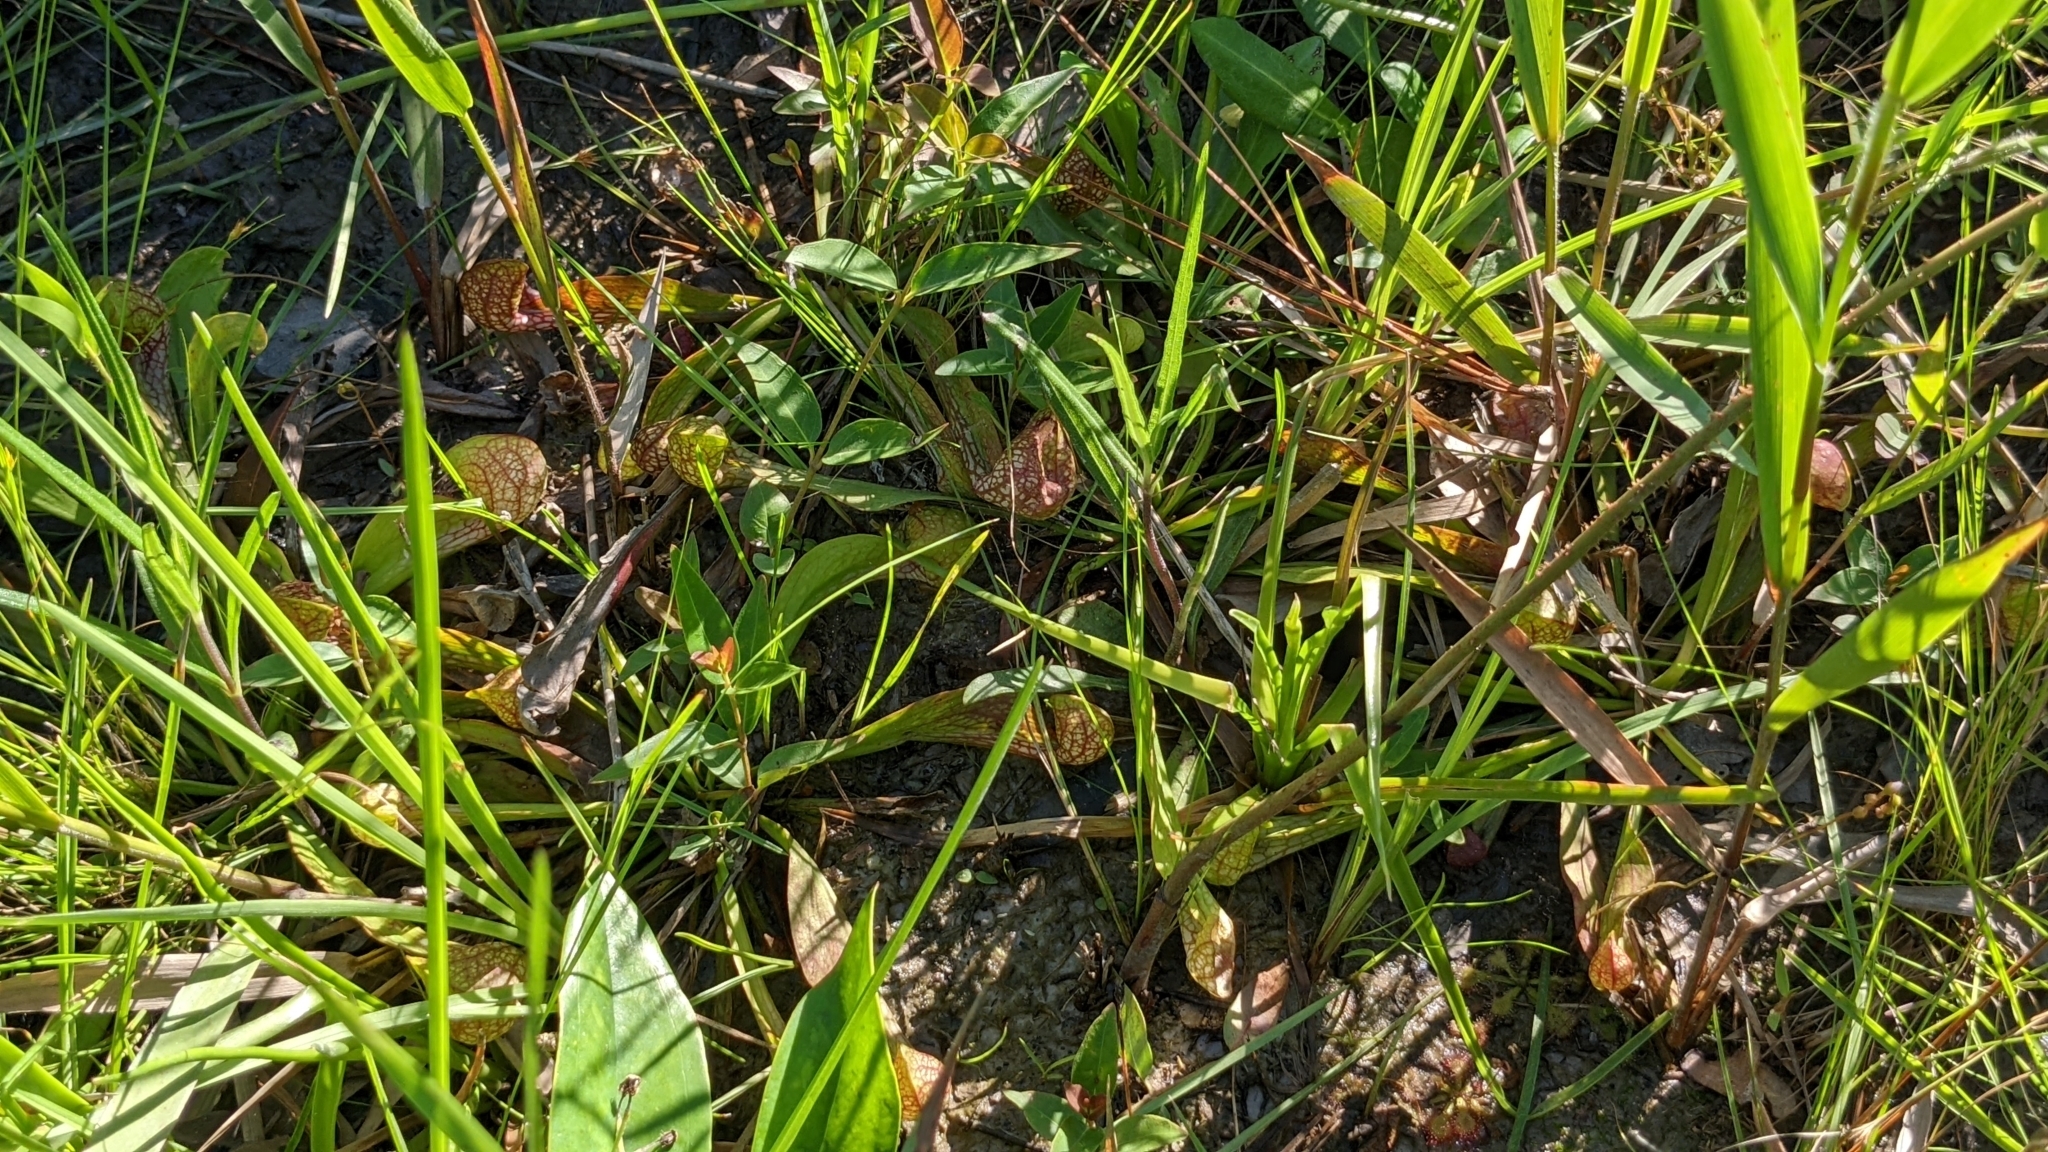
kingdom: Plantae
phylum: Tracheophyta
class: Magnoliopsida
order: Ericales
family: Sarraceniaceae
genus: Sarracenia
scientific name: Sarracenia psittacina
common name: Parrot pitcherplant
